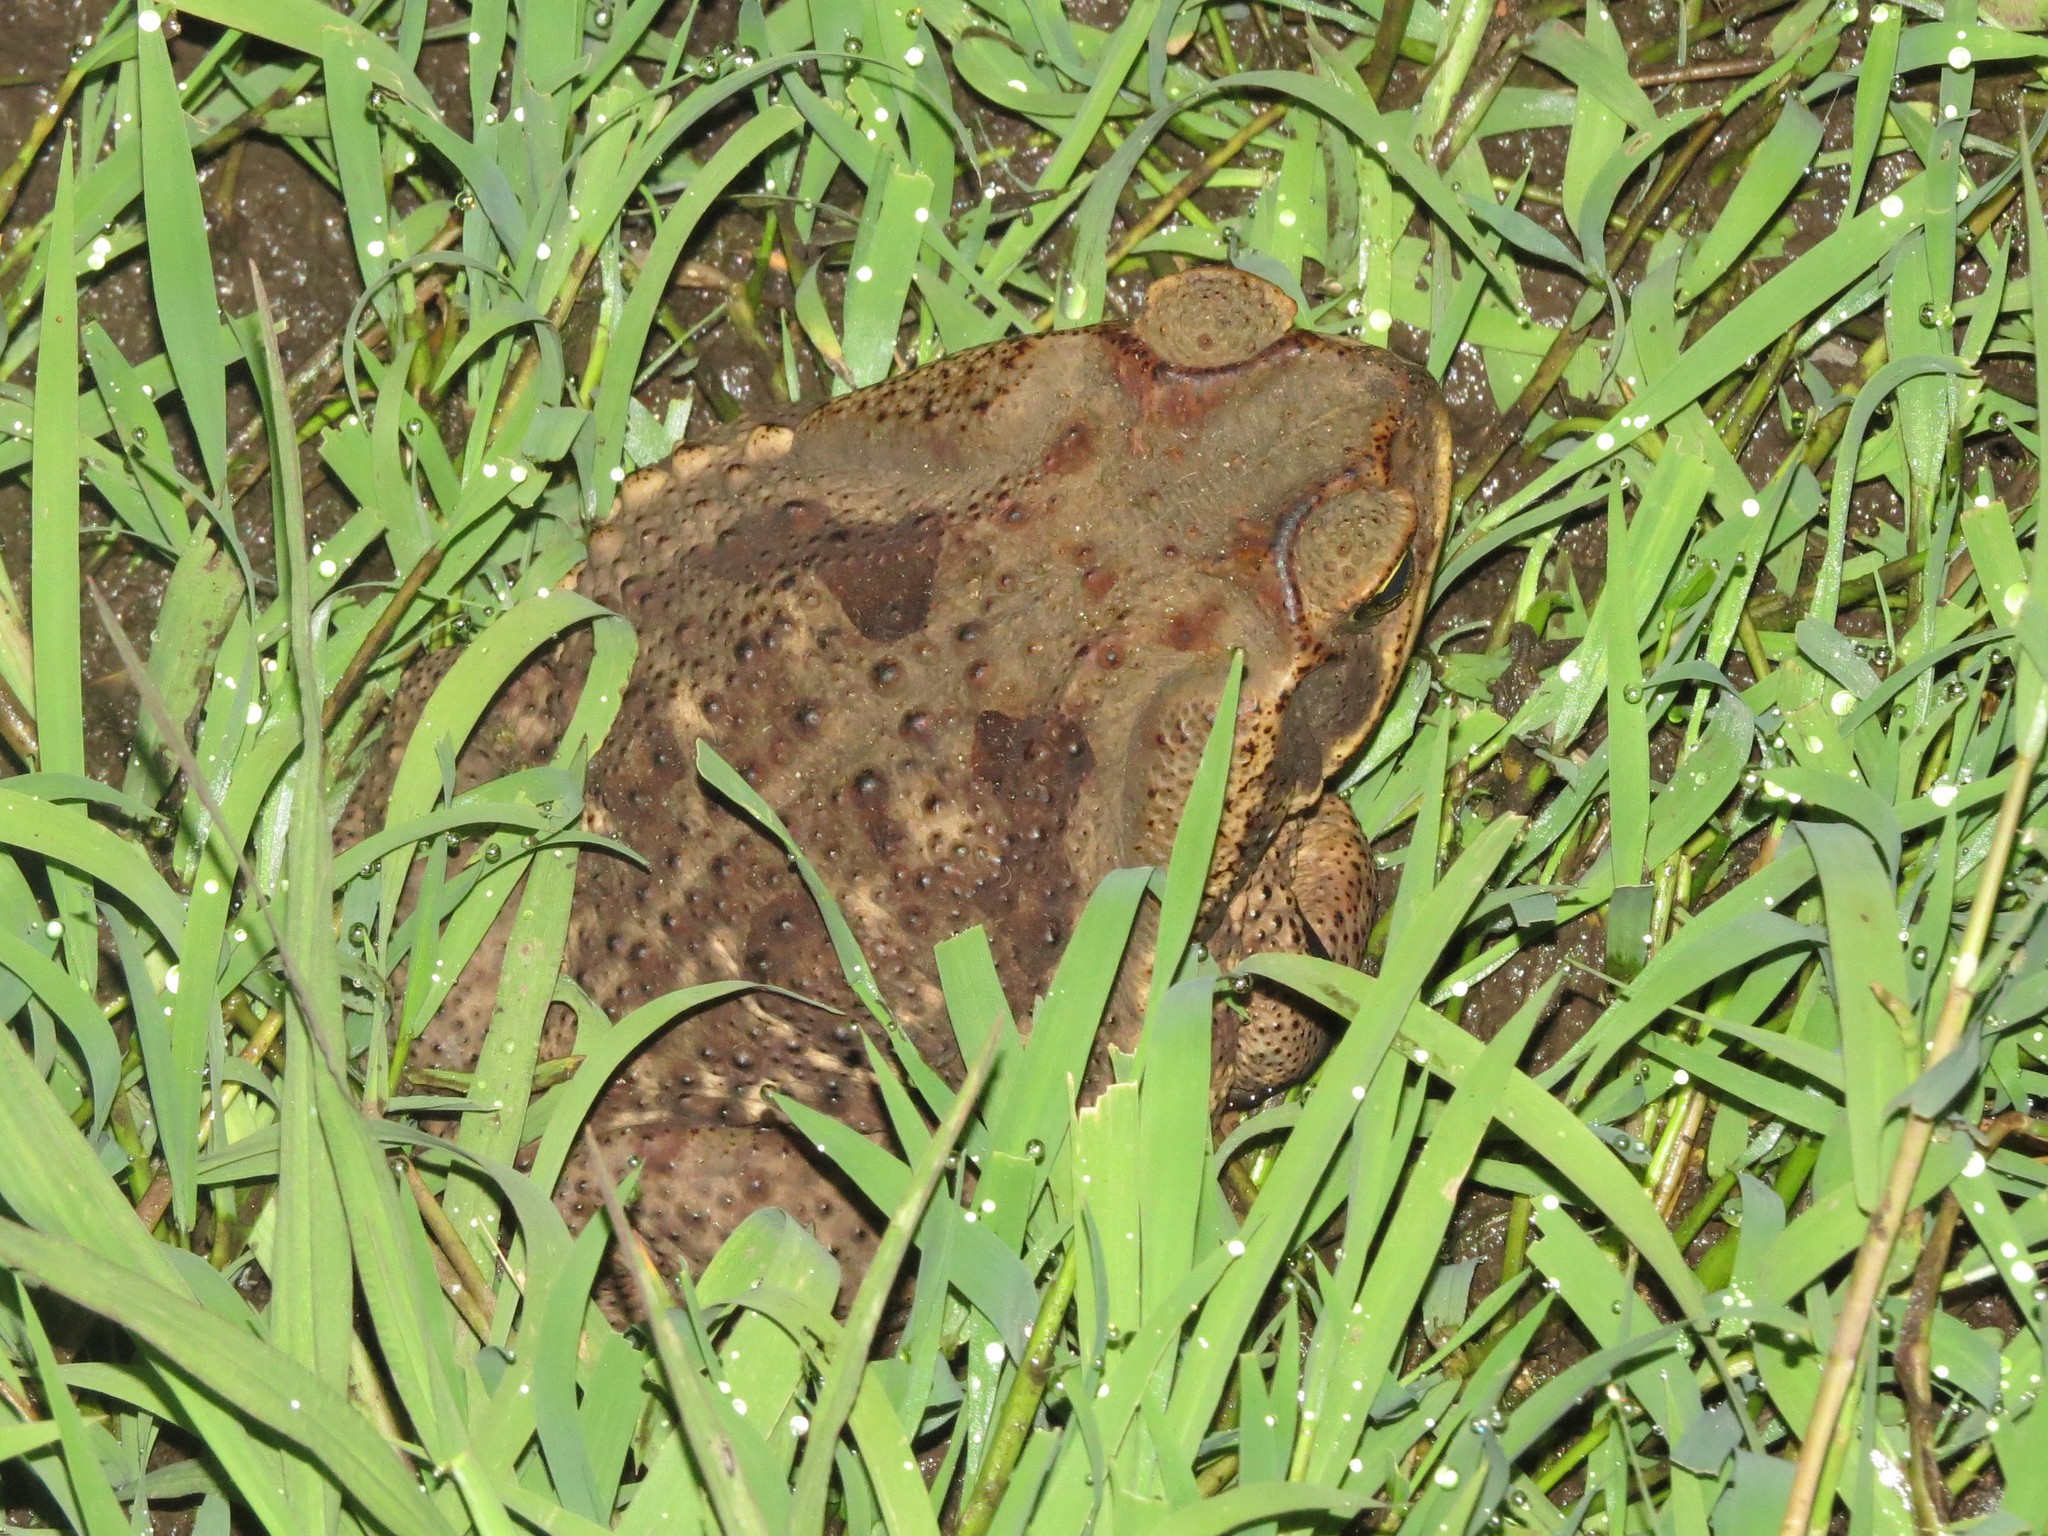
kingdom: Animalia
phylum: Chordata
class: Amphibia
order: Anura
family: Bufonidae
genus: Rhinella
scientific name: Rhinella diptycha
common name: Cope's toad
